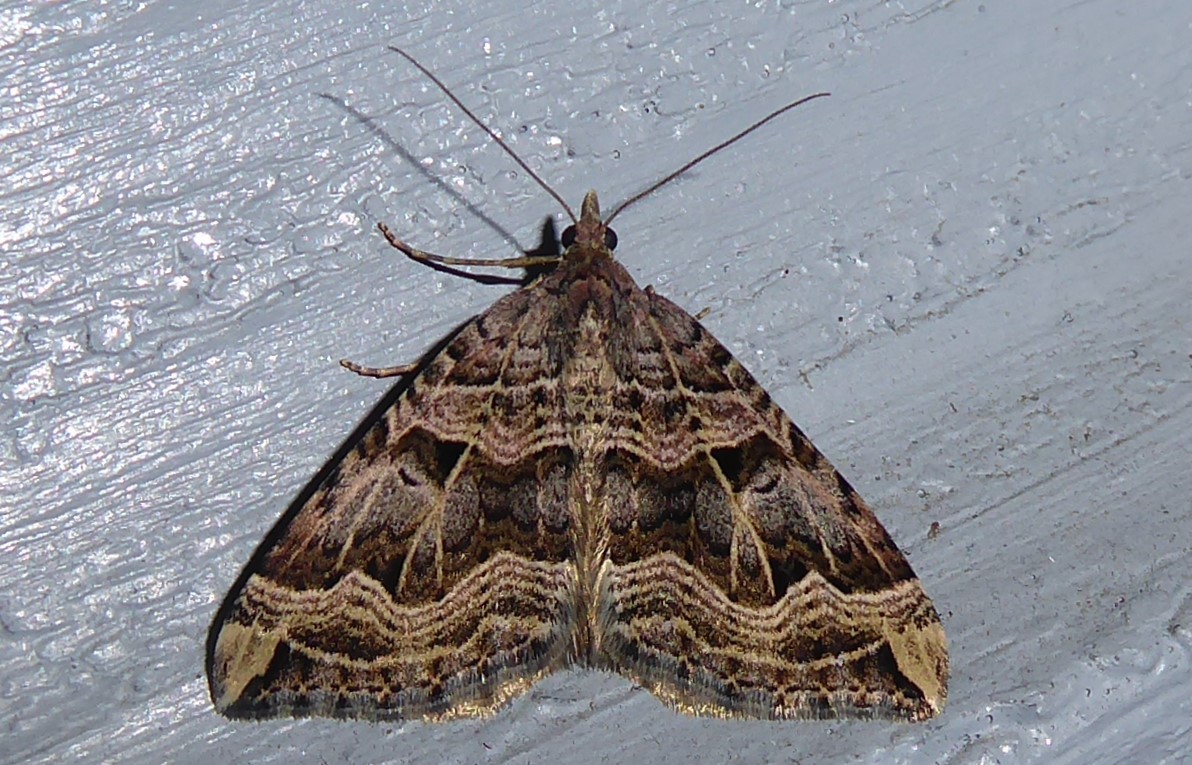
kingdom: Animalia
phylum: Arthropoda
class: Insecta
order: Lepidoptera
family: Geometridae
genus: Xanthorhoe
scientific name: Xanthorhoe semifissata
